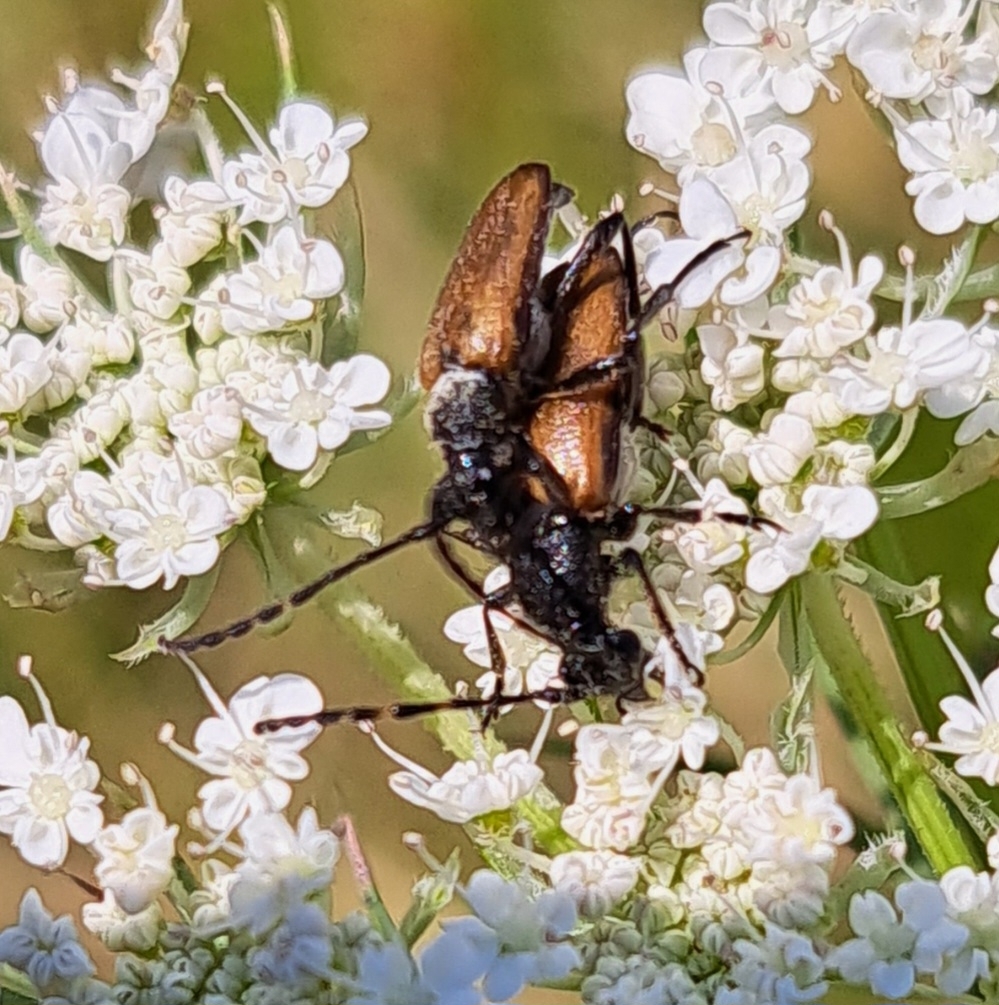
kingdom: Animalia
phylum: Arthropoda
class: Insecta
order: Coleoptera
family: Cerambycidae
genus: Paracorymbia
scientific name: Paracorymbia maculicornis
